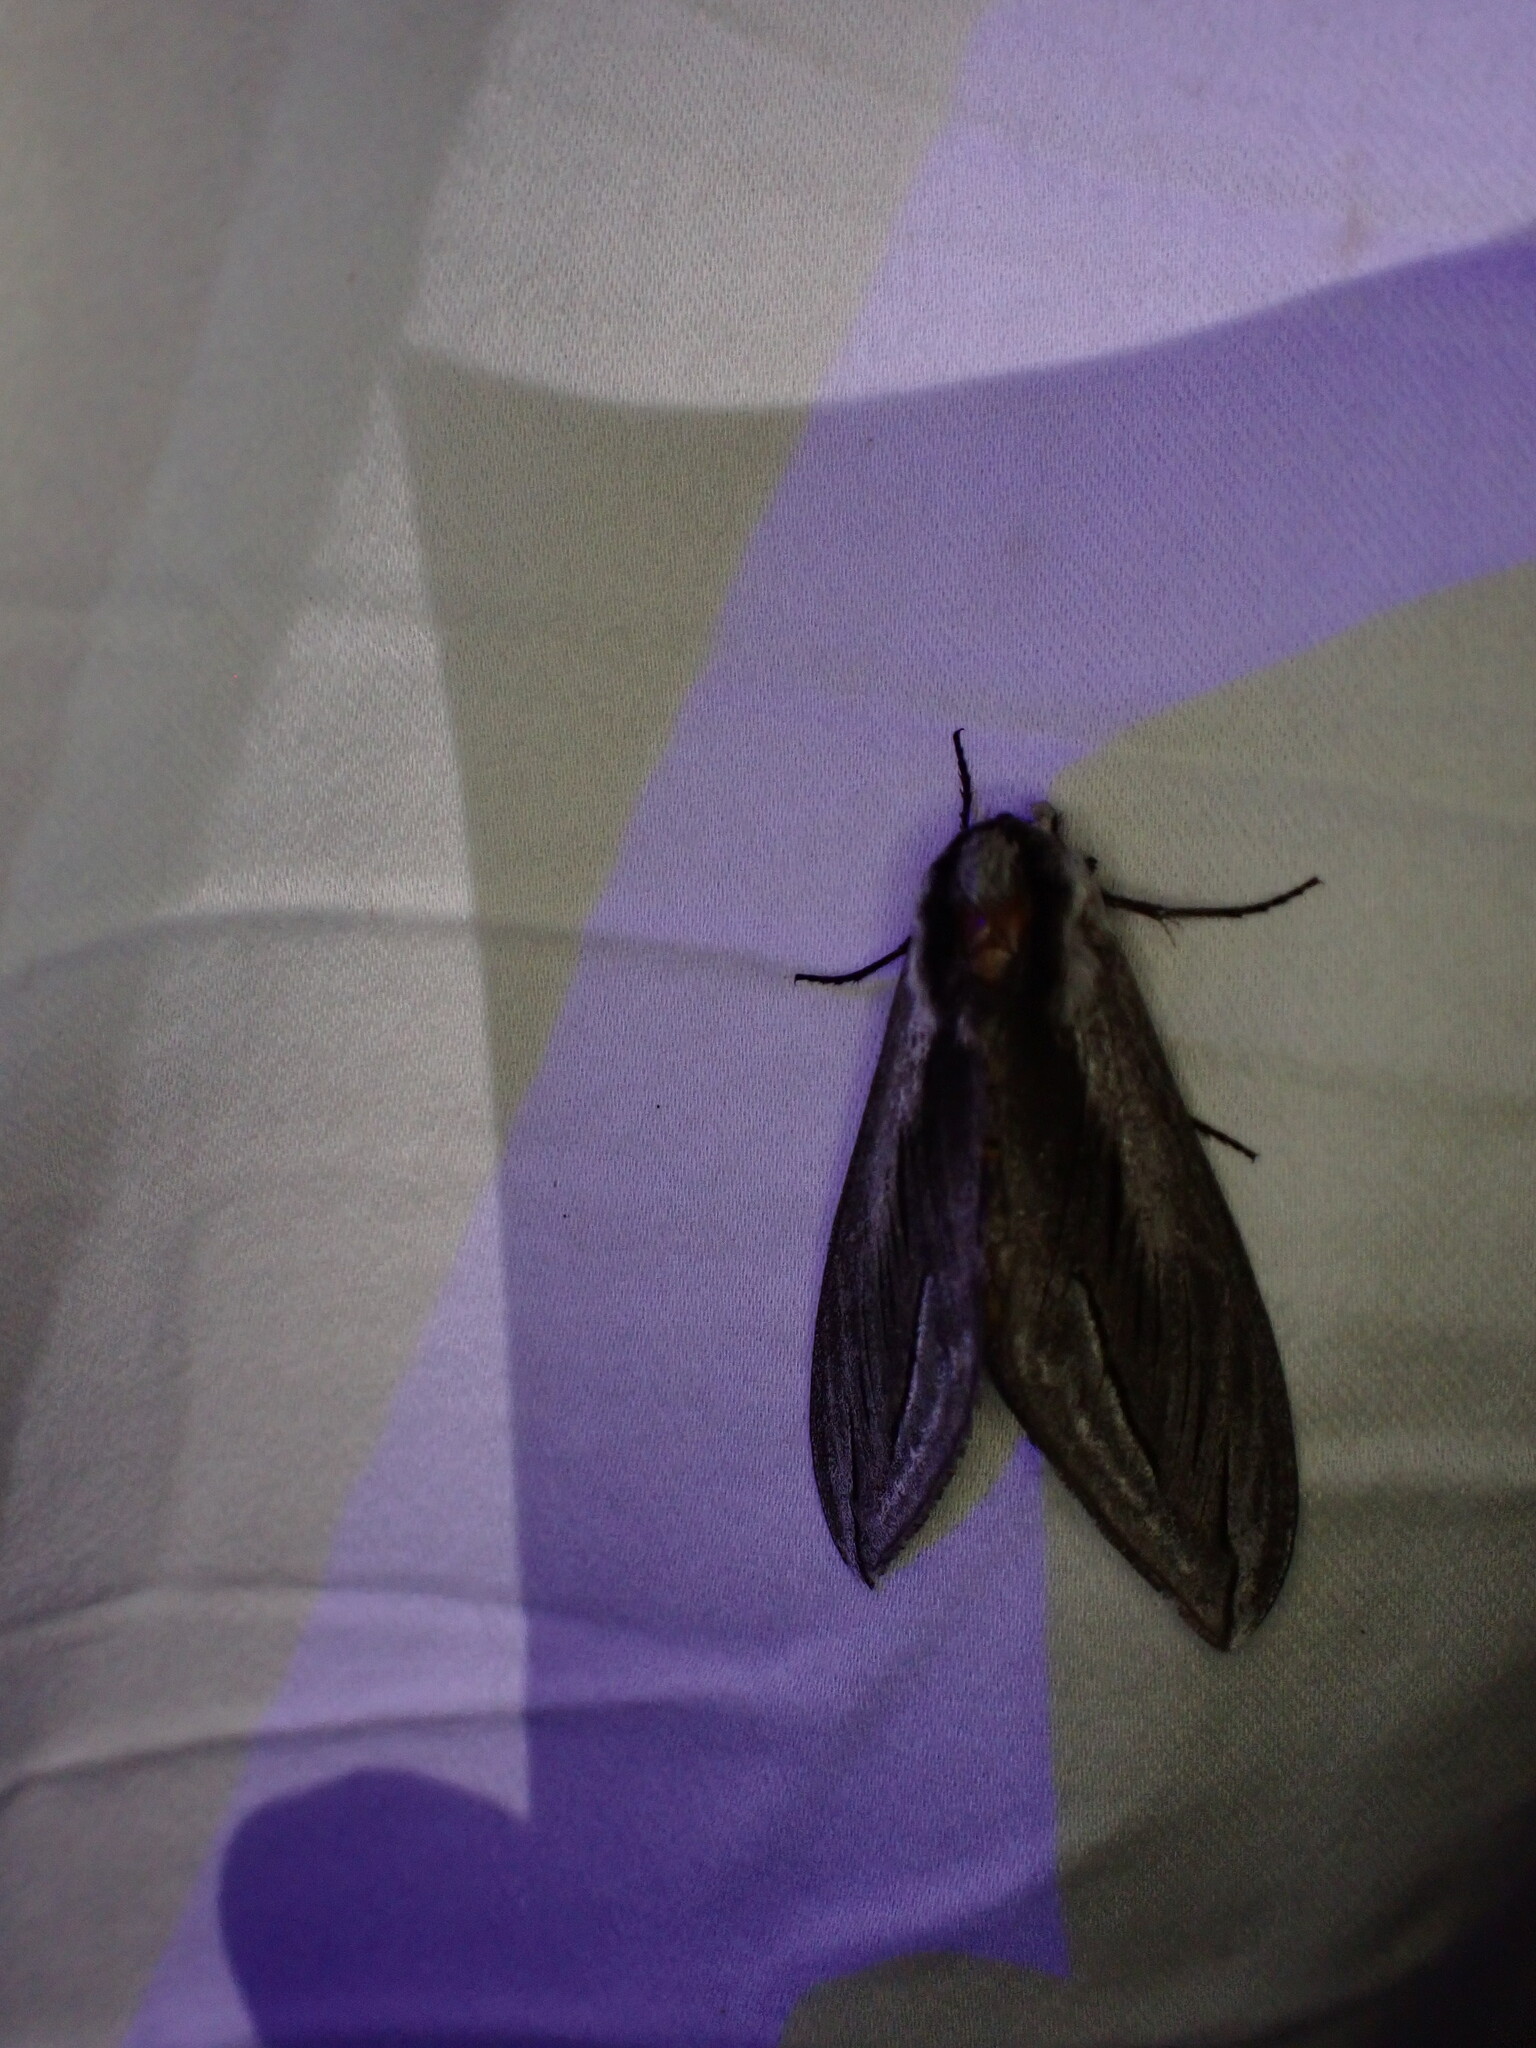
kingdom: Animalia
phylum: Arthropoda
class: Insecta
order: Lepidoptera
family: Sphingidae
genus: Sphinx
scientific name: Sphinx vashti
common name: Snowberry sphinx
